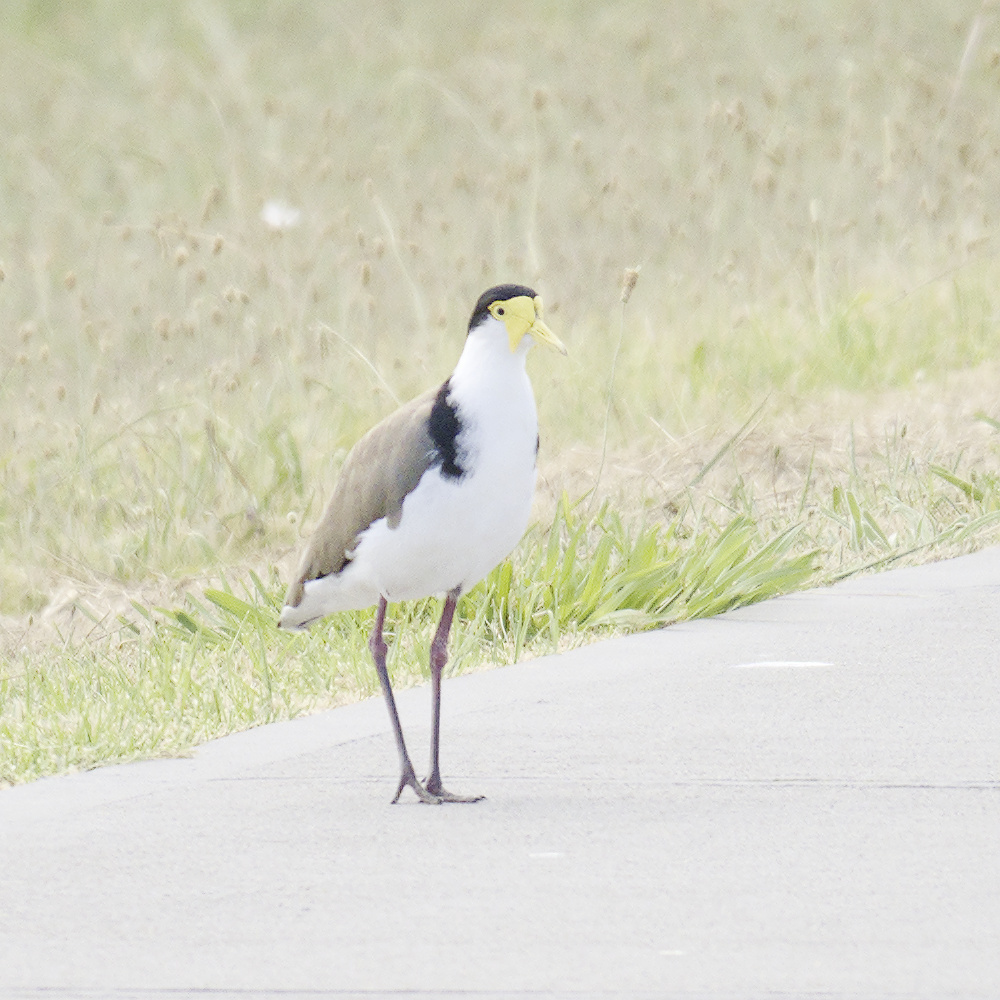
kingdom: Animalia
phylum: Chordata
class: Aves
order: Charadriiformes
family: Charadriidae
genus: Vanellus
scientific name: Vanellus miles
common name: Masked lapwing
